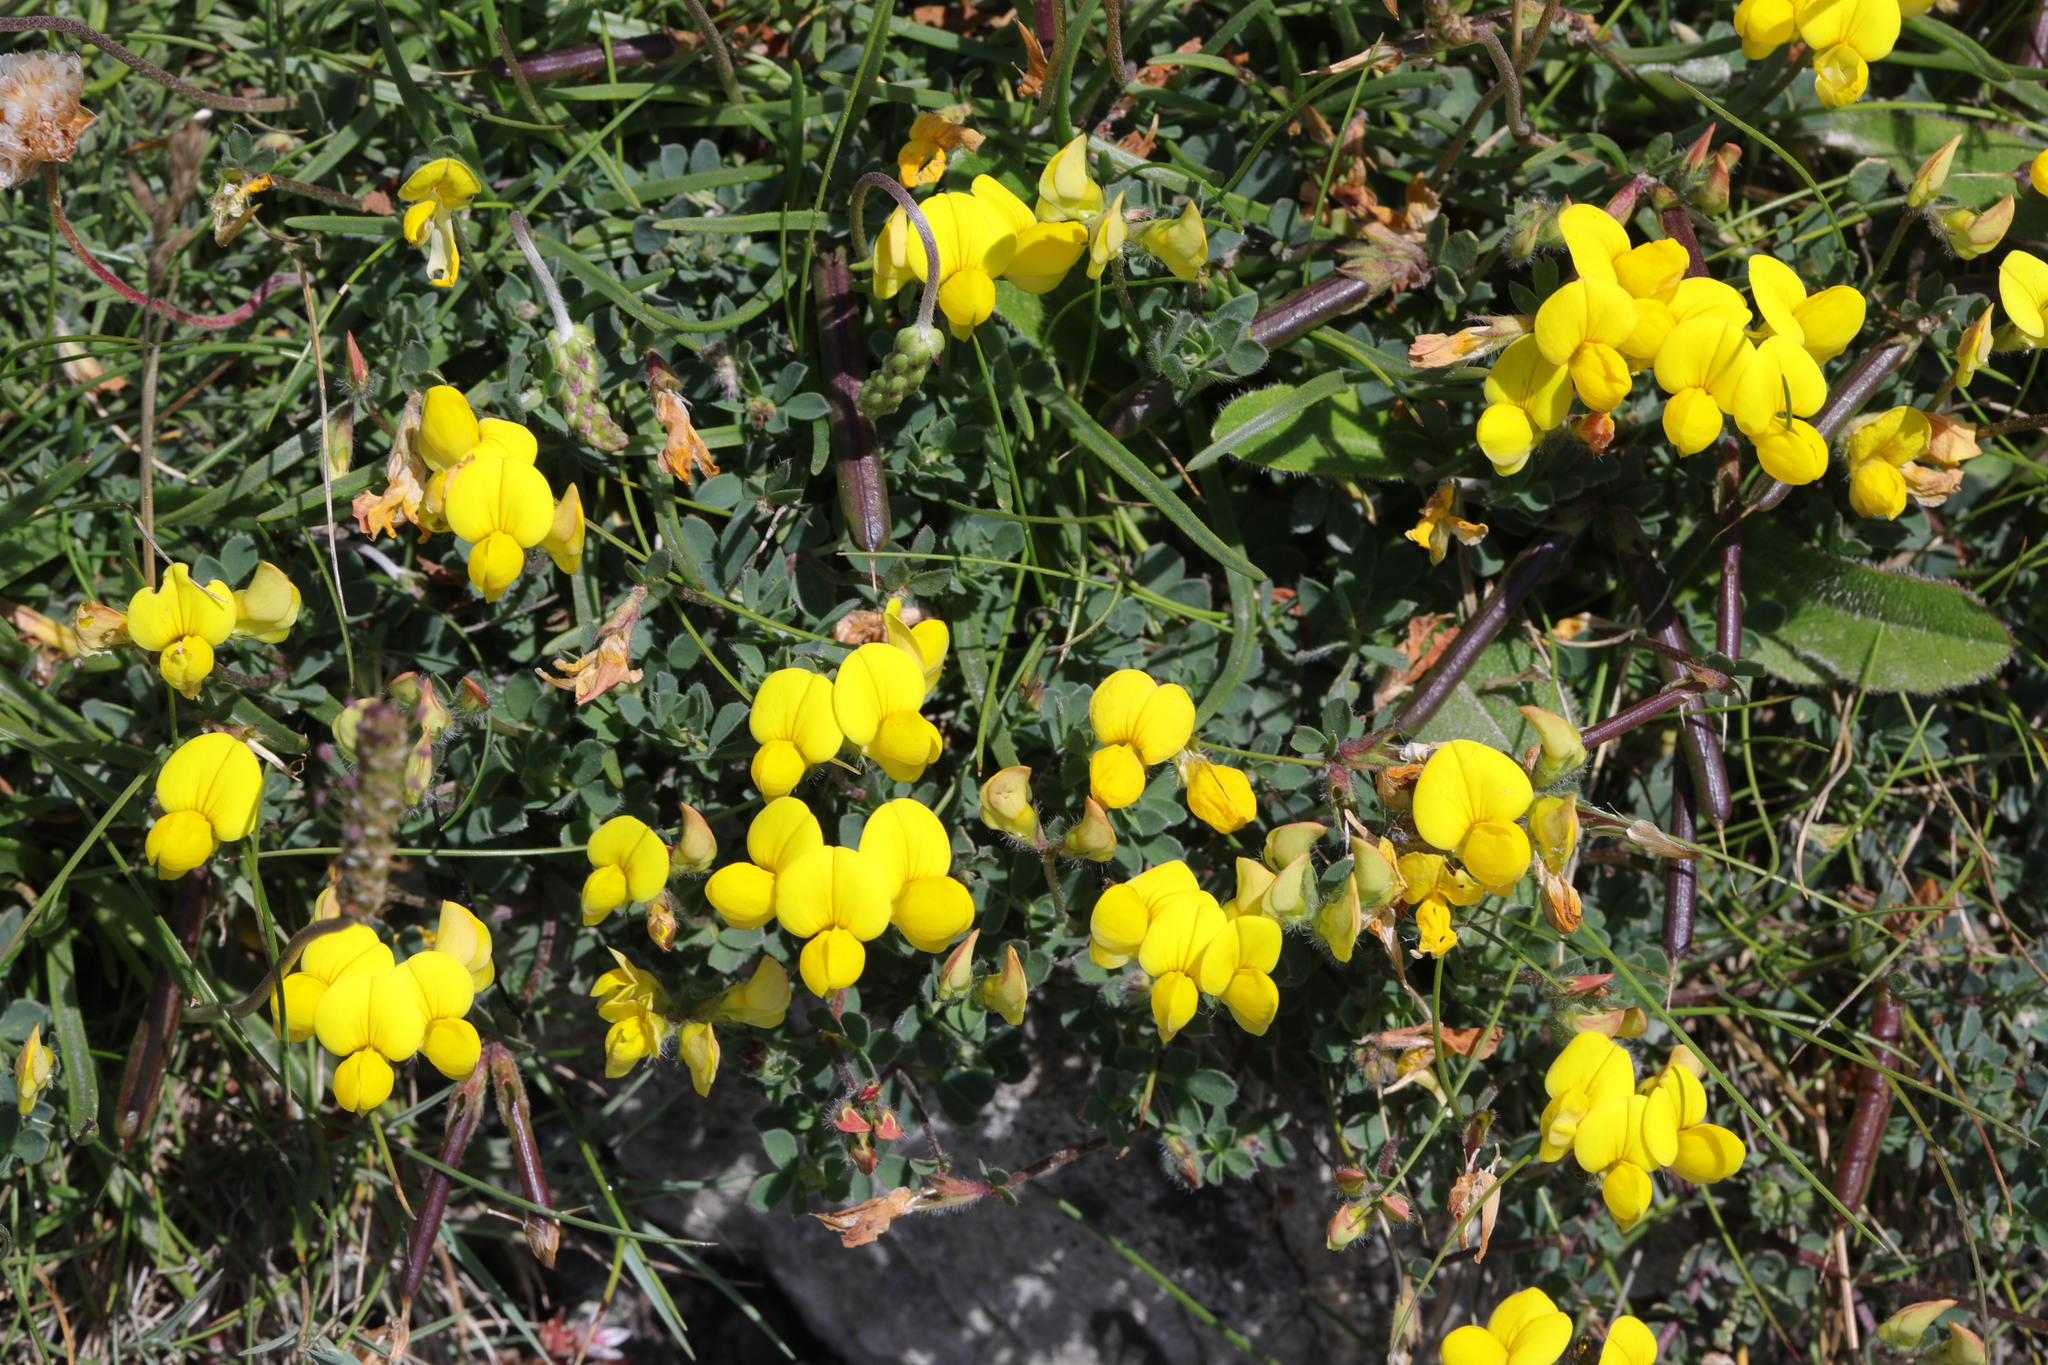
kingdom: Plantae
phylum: Tracheophyta
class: Magnoliopsida
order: Fabales
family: Fabaceae
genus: Lotus
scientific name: Lotus corniculatus
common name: Common bird's-foot-trefoil
